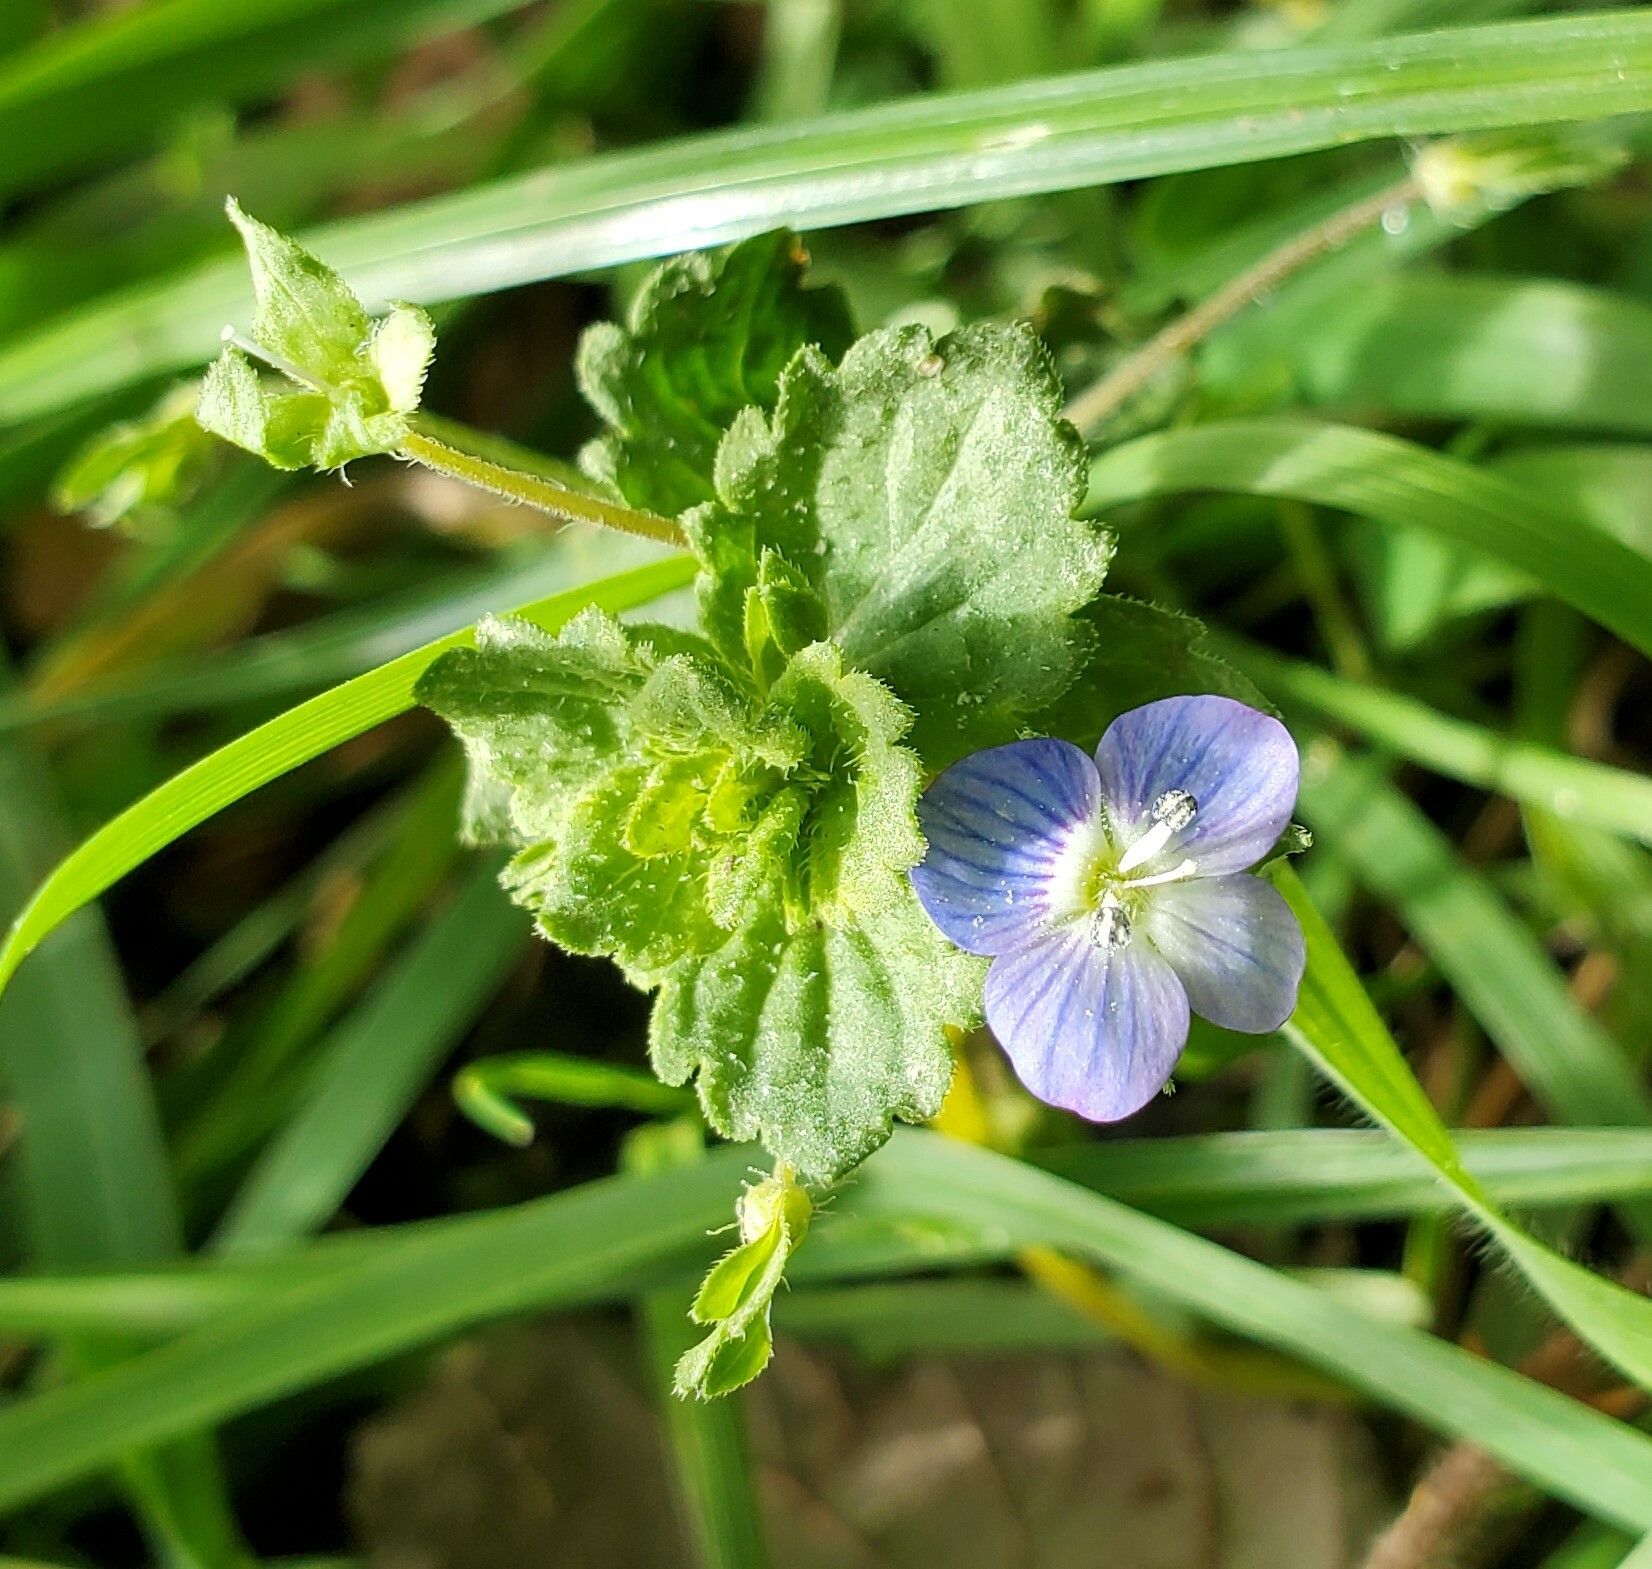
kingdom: Plantae
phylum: Tracheophyta
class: Magnoliopsida
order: Lamiales
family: Plantaginaceae
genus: Veronica
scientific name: Veronica persica
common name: Common field-speedwell
